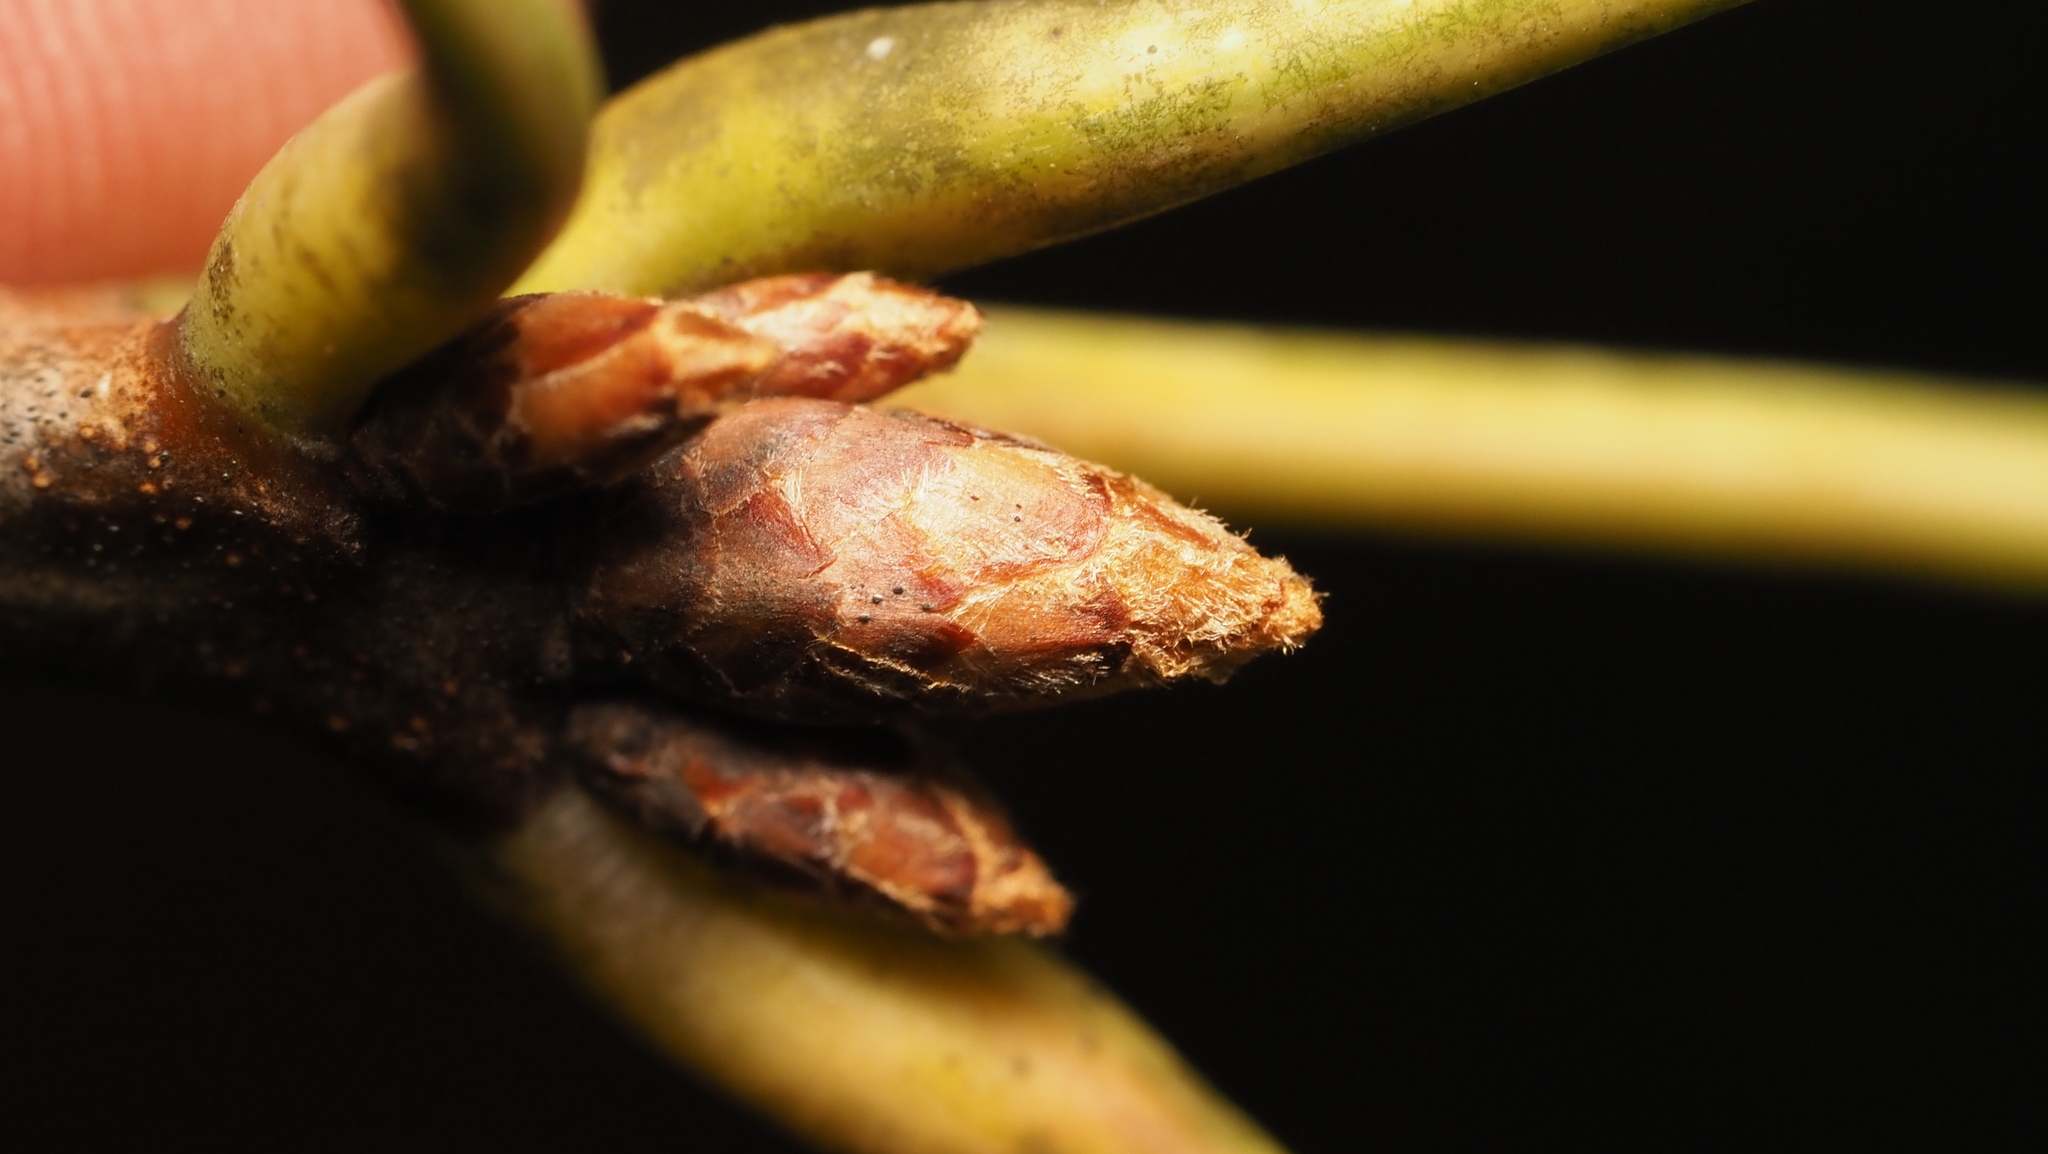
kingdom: Plantae
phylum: Tracheophyta
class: Magnoliopsida
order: Fagales
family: Fagaceae
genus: Quercus
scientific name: Quercus velutina
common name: Black oak
